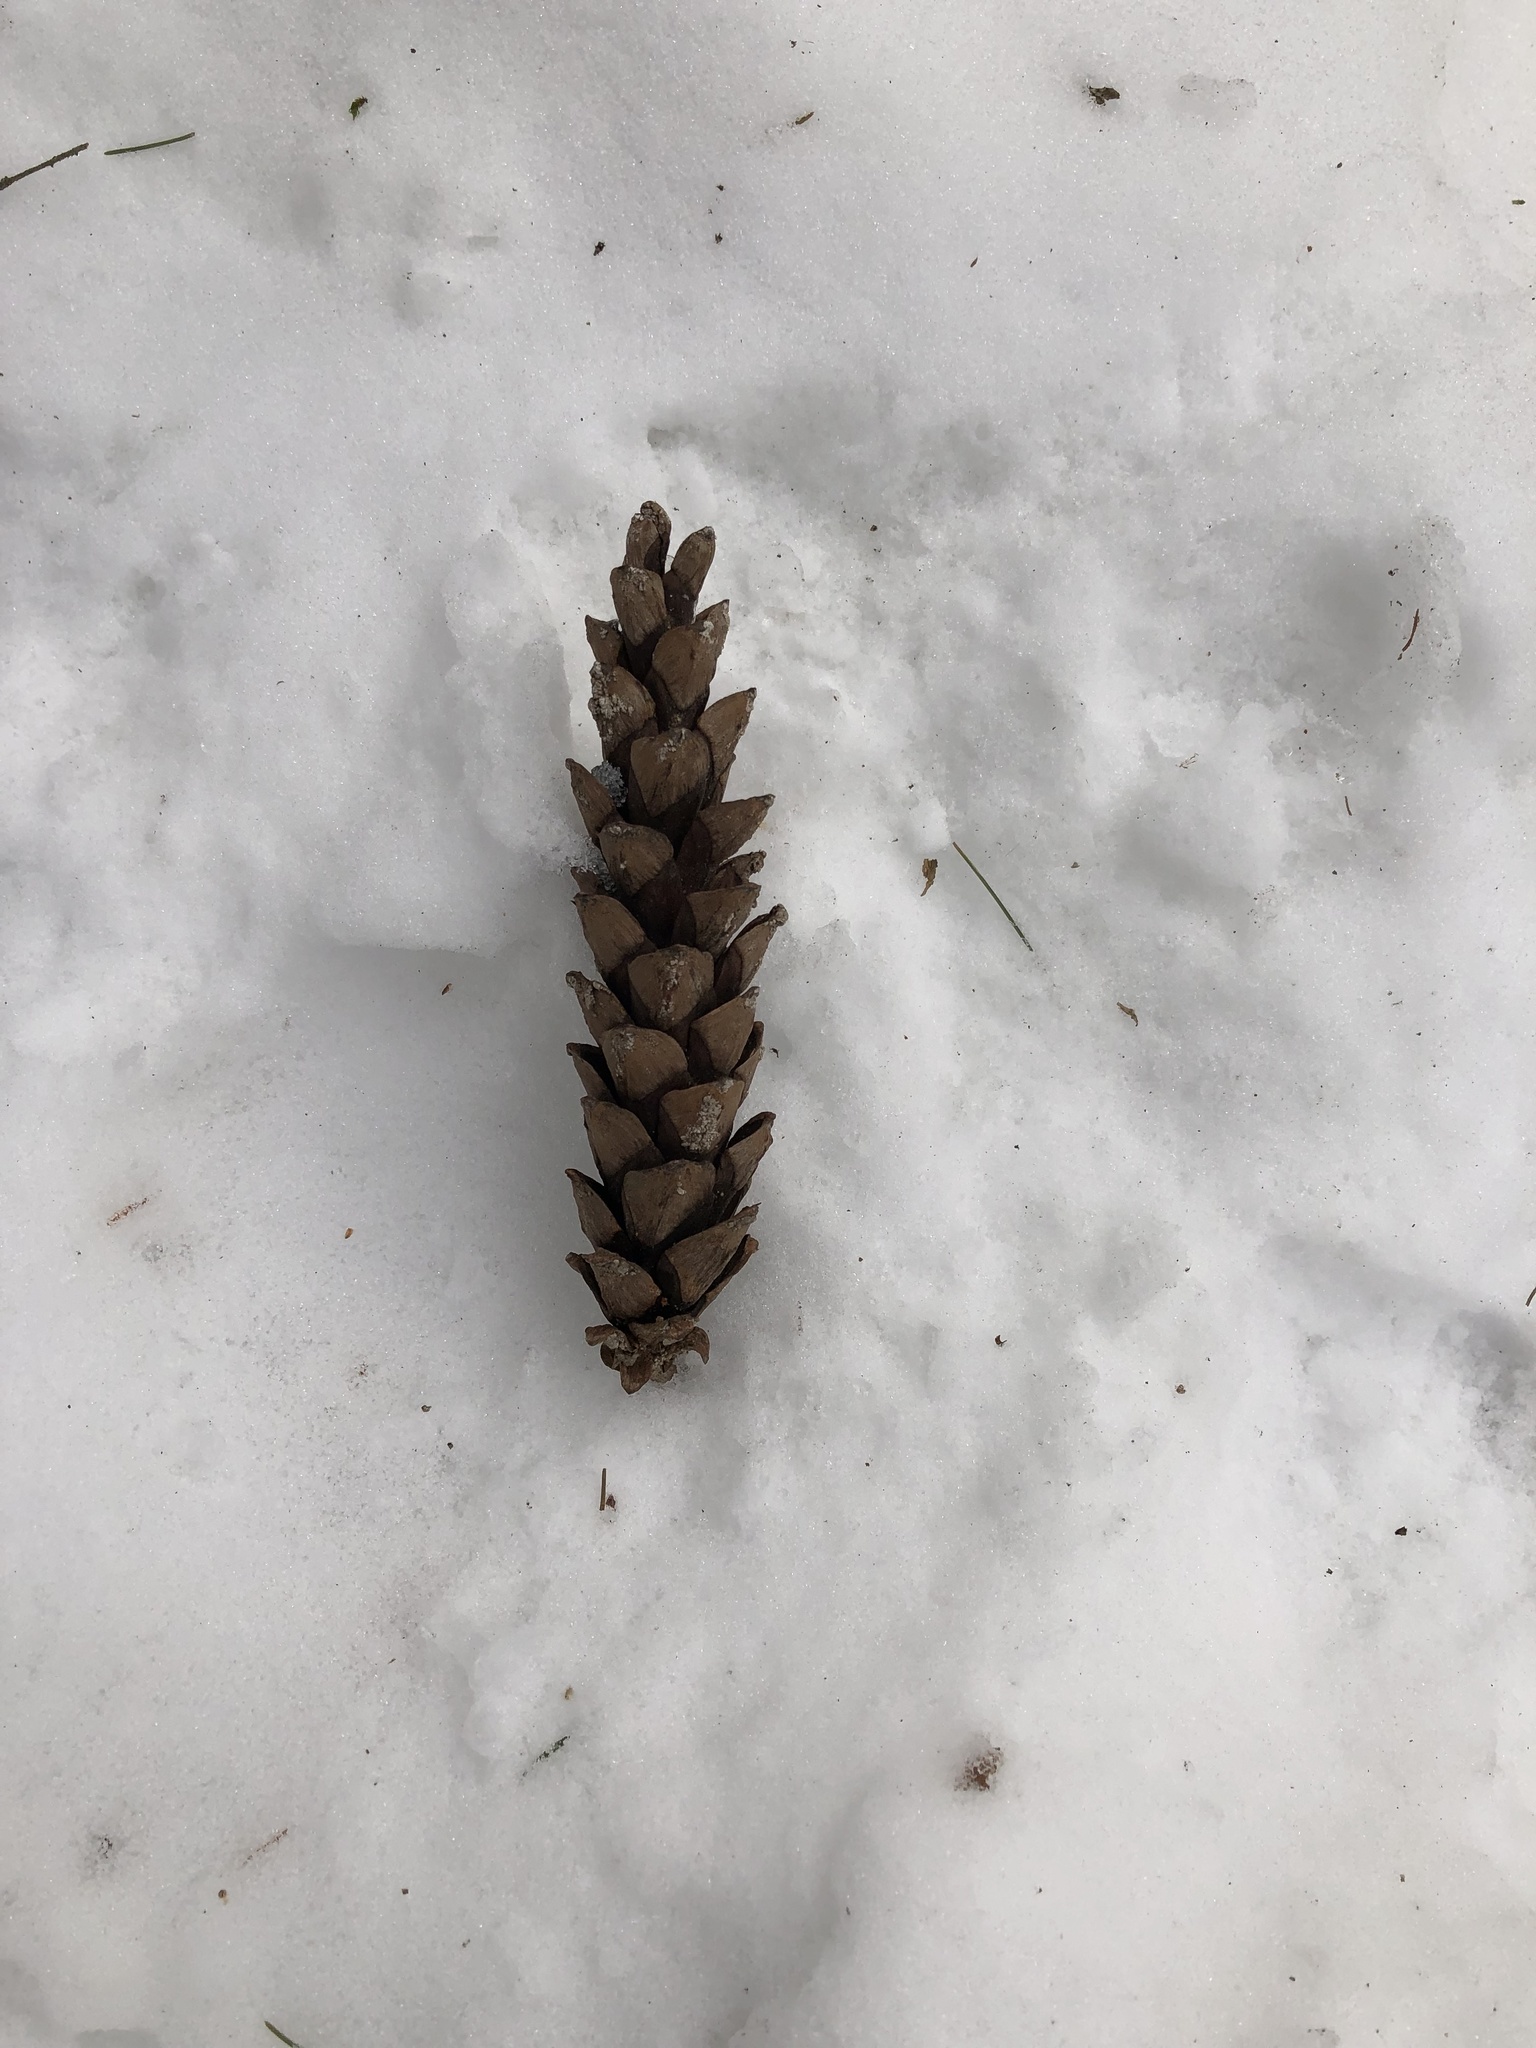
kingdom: Plantae
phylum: Tracheophyta
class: Pinopsida
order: Pinales
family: Pinaceae
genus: Pinus
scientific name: Pinus strobus
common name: Weymouth pine
